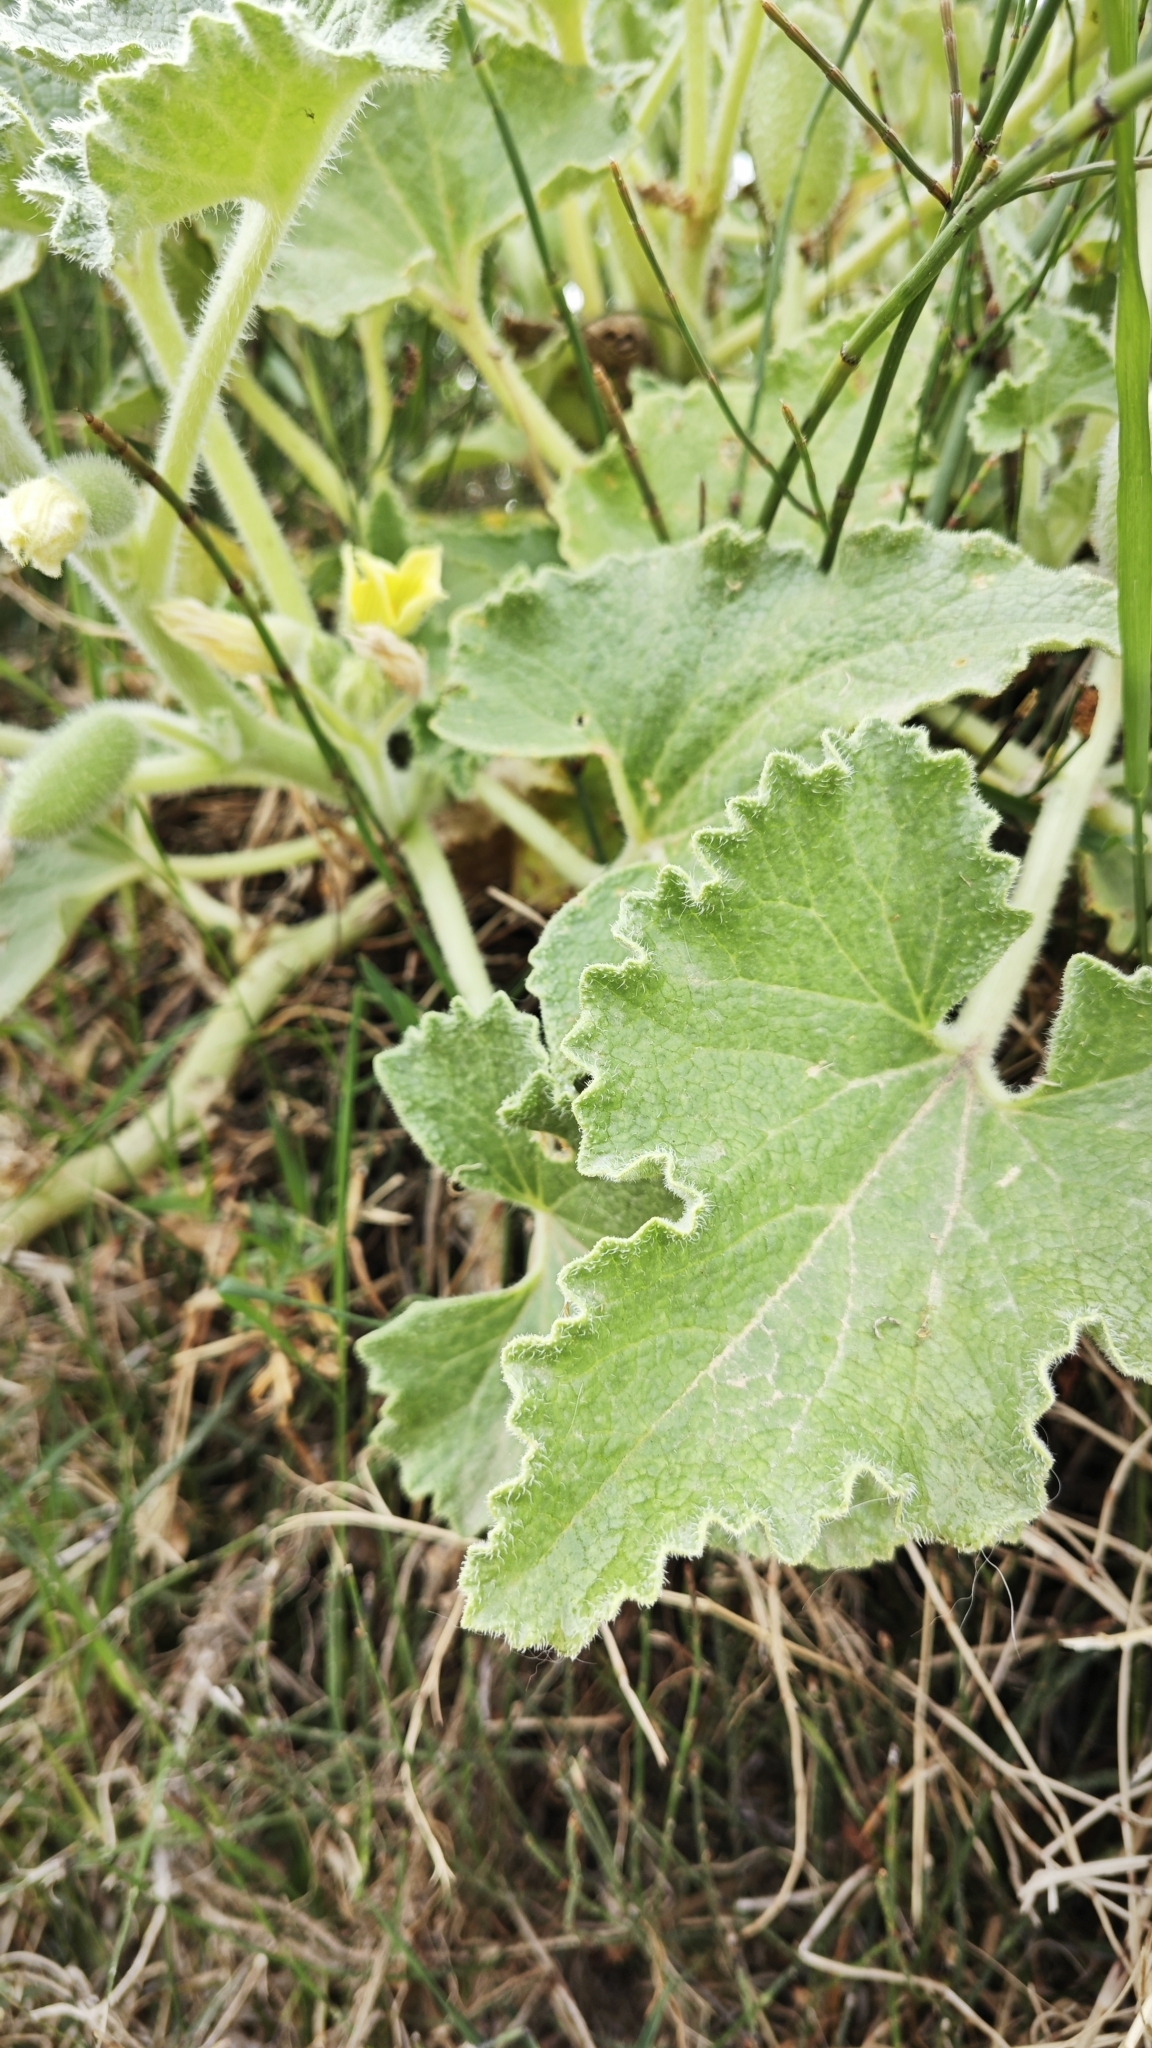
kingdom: Plantae
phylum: Tracheophyta
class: Magnoliopsida
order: Cucurbitales
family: Cucurbitaceae
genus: Ecballium
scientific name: Ecballium elaterium
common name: Squirting cucumber
